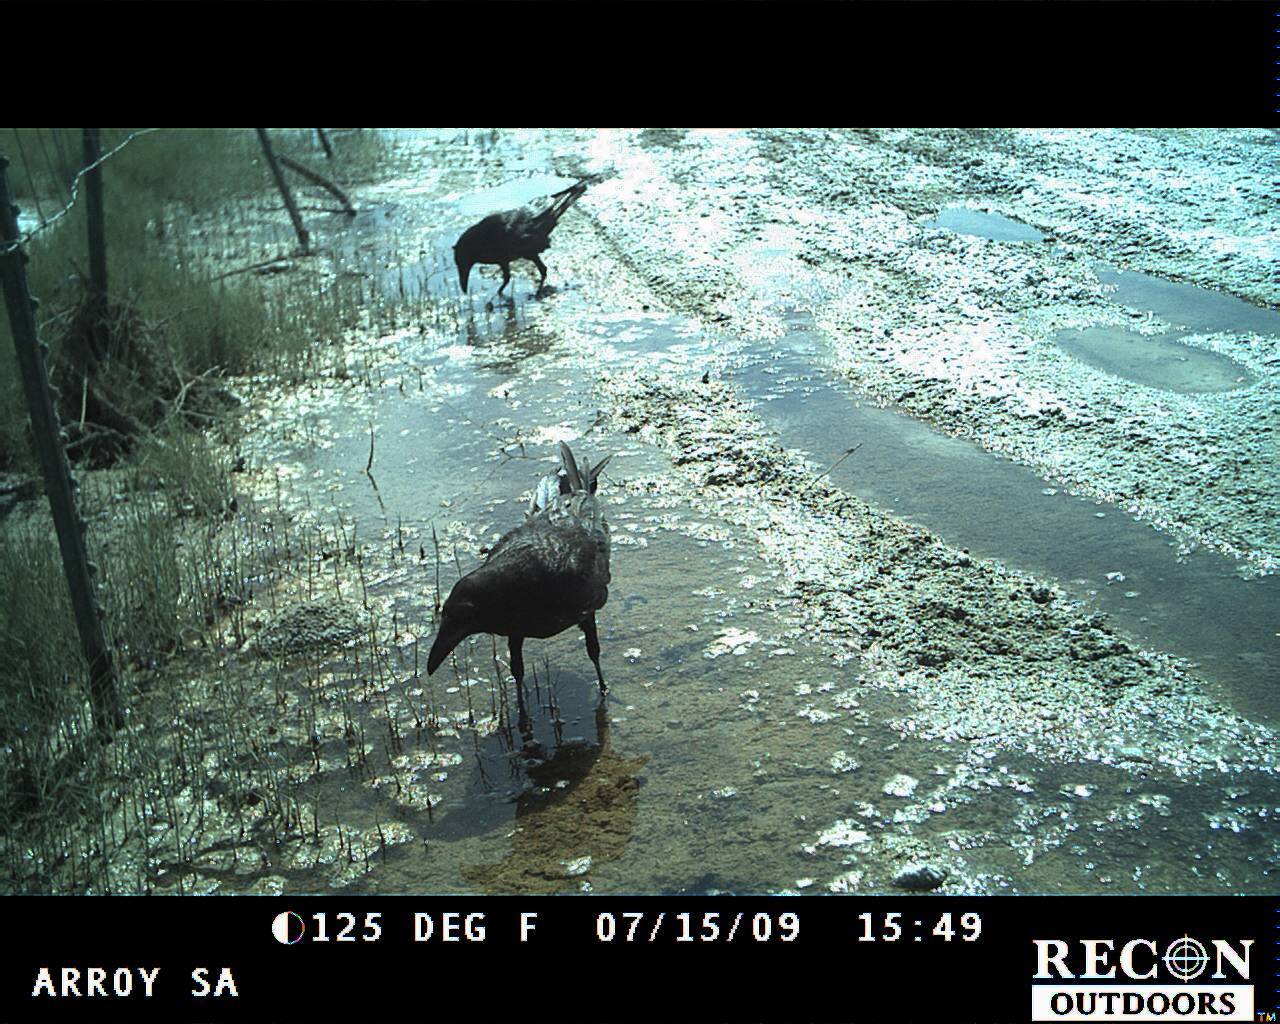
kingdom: Animalia
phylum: Chordata
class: Aves
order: Passeriformes
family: Corvidae
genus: Corvus
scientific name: Corvus corax
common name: Common raven
